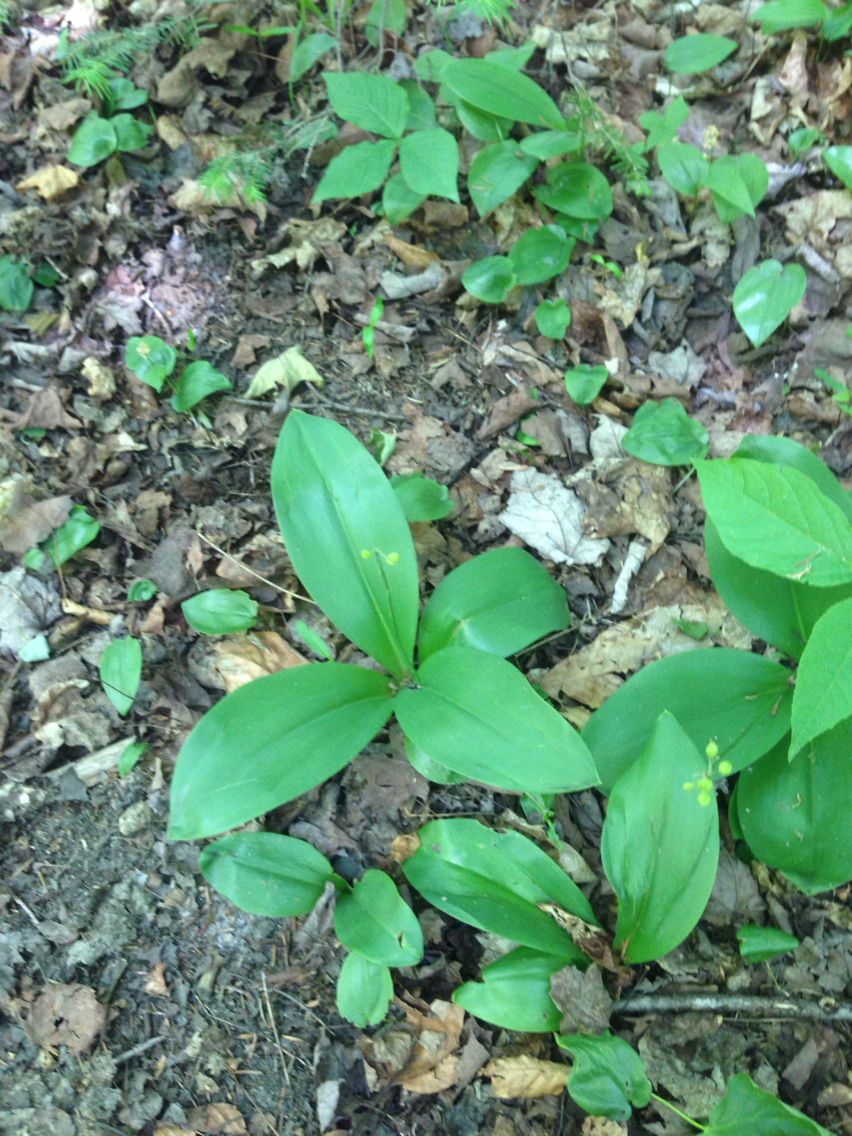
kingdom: Plantae
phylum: Tracheophyta
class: Liliopsida
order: Liliales
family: Liliaceae
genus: Clintonia
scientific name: Clintonia borealis
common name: Yellow clintonia
